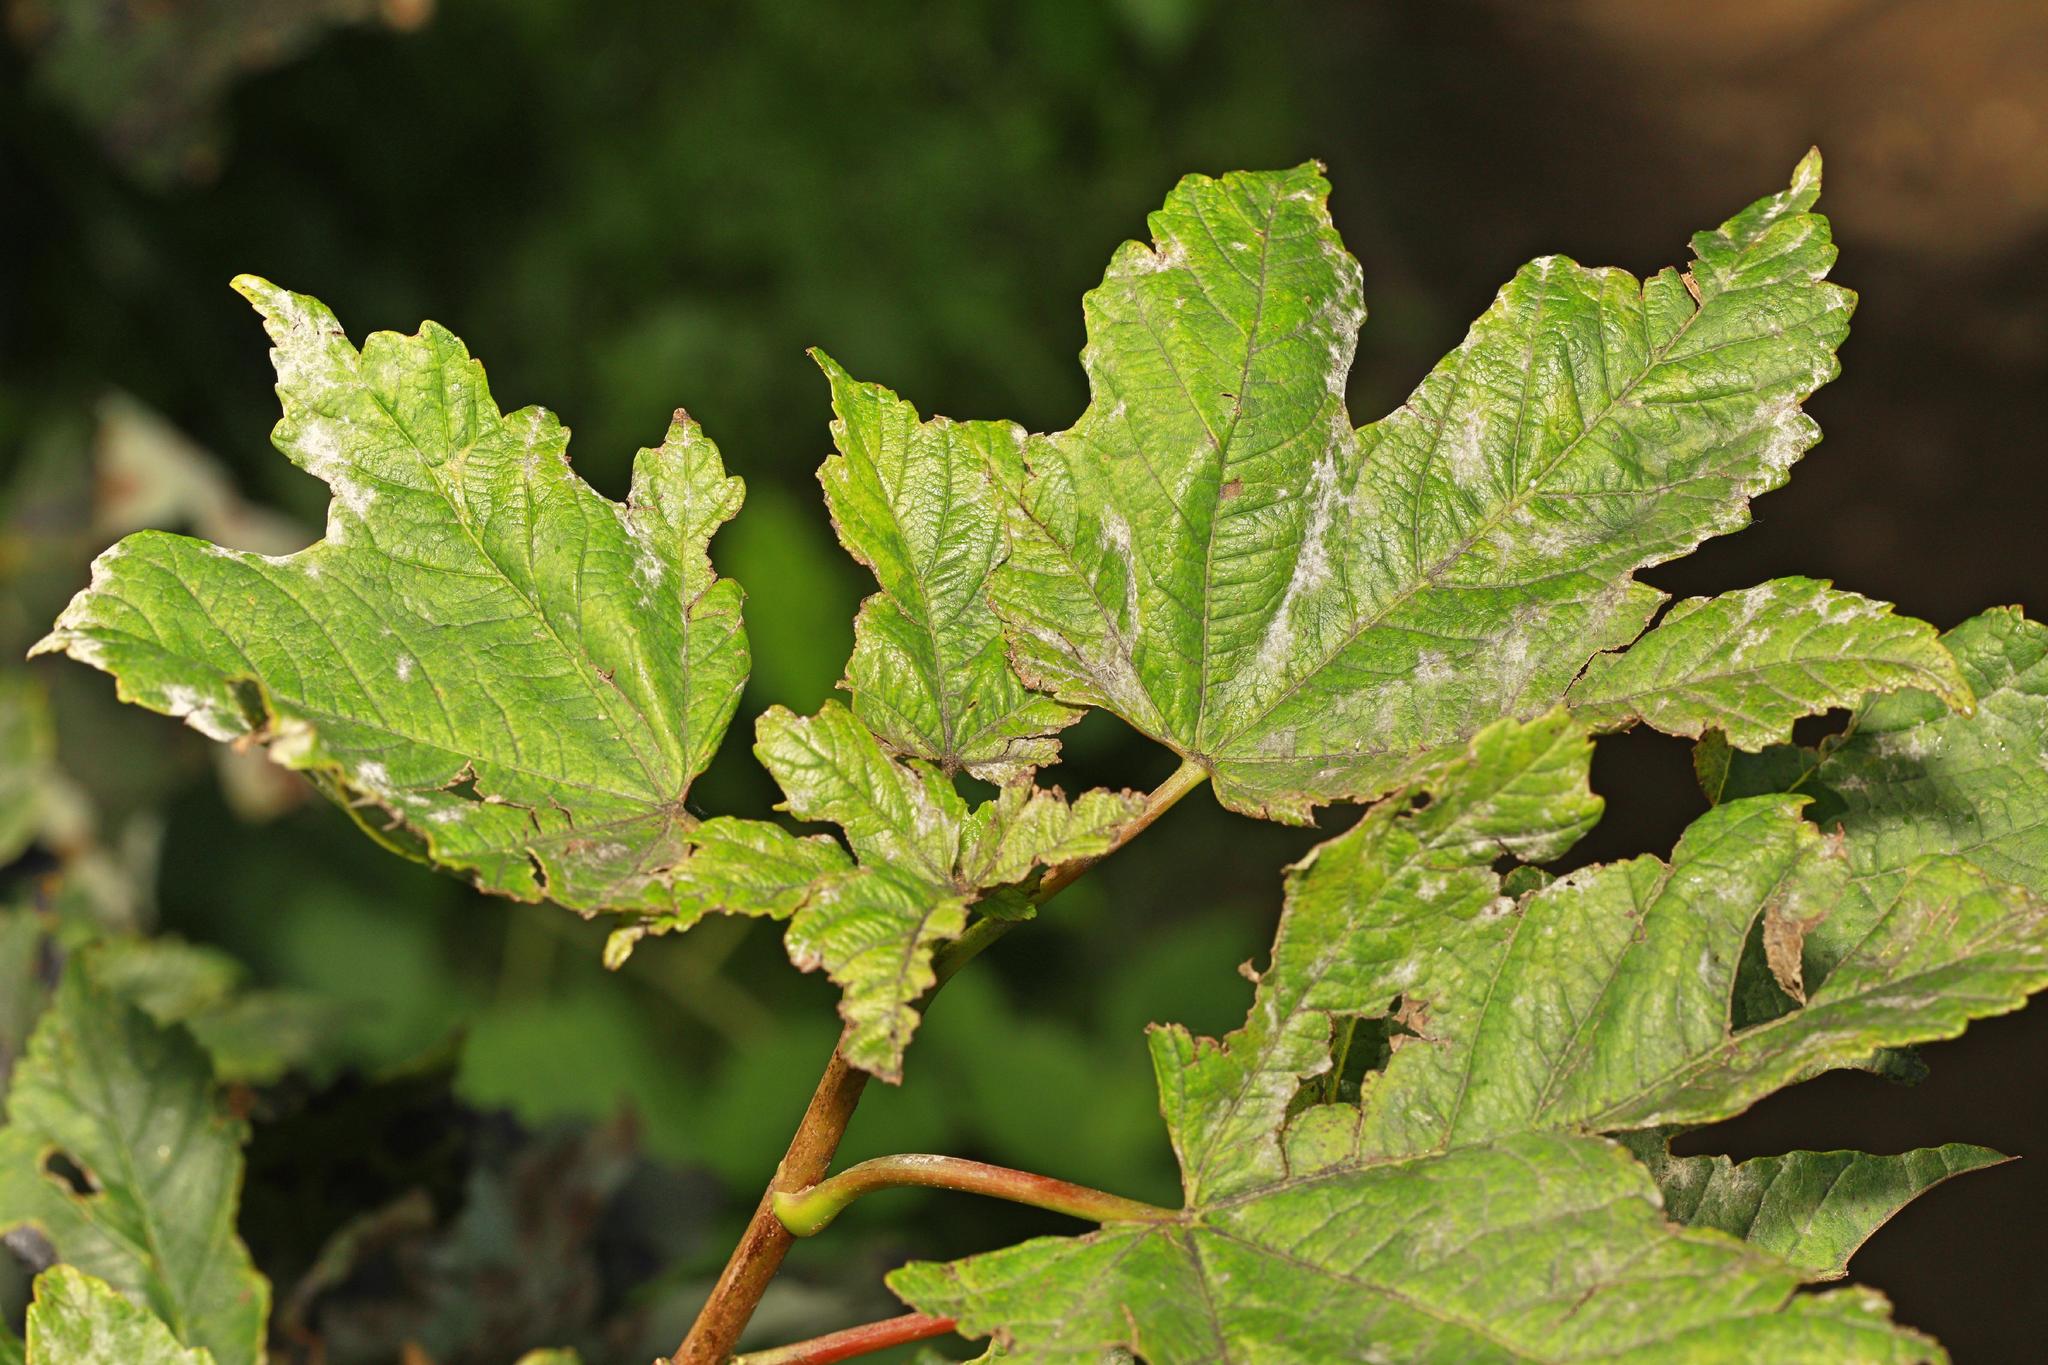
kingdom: Plantae
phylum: Tracheophyta
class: Magnoliopsida
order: Sapindales
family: Sapindaceae
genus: Acer
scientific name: Acer pseudoplatanus
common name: Sycamore
